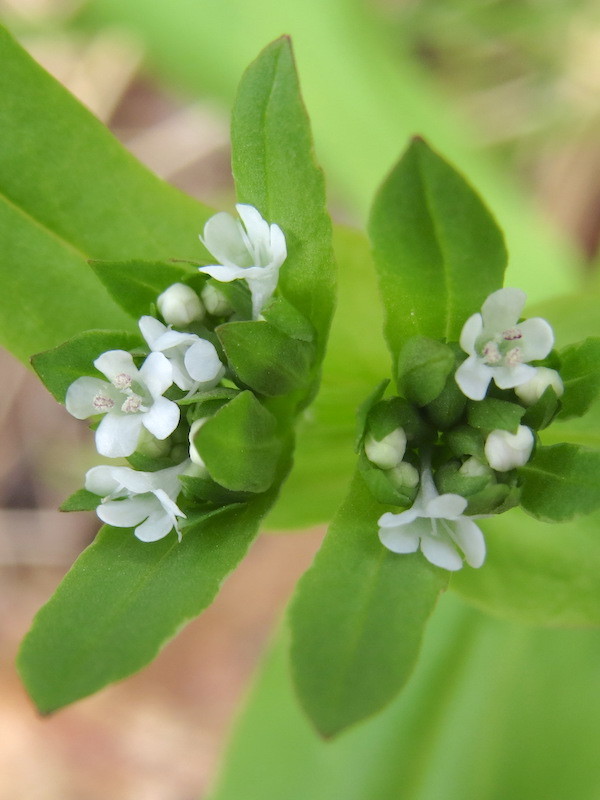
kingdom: Plantae
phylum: Tracheophyta
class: Magnoliopsida
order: Dipsacales
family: Caprifoliaceae
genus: Valerianella
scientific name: Valerianella locusta
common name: Common cornsalad
